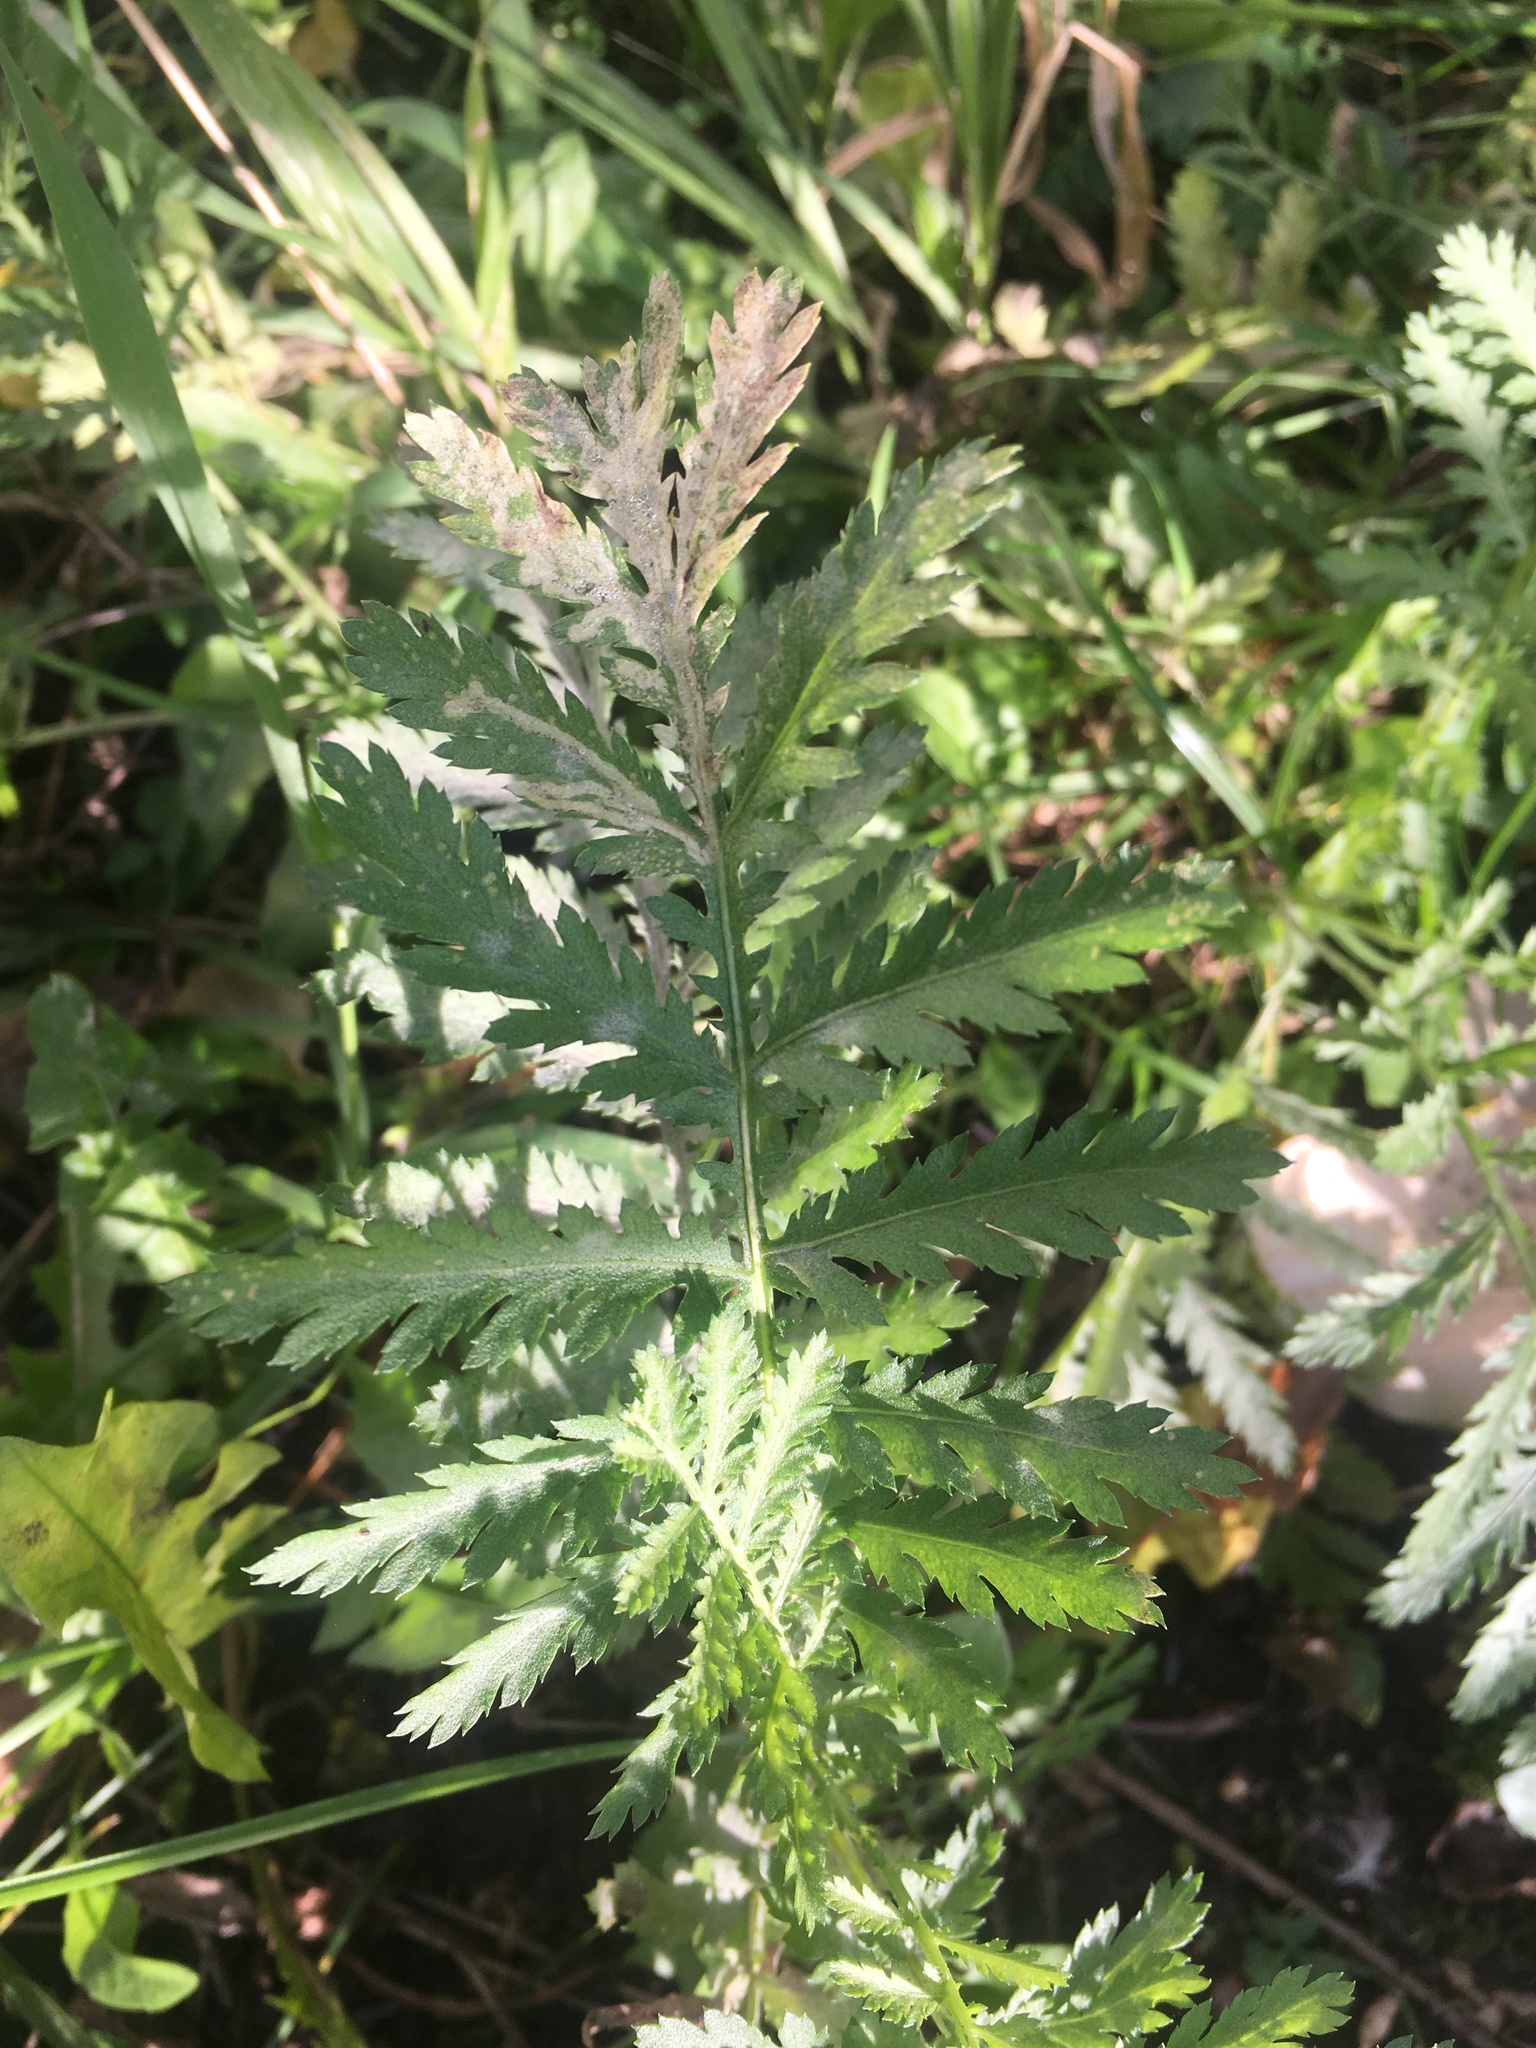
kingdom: Plantae
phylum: Tracheophyta
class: Magnoliopsida
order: Asterales
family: Asteraceae
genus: Tanacetum
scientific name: Tanacetum vulgare
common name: Common tansy
